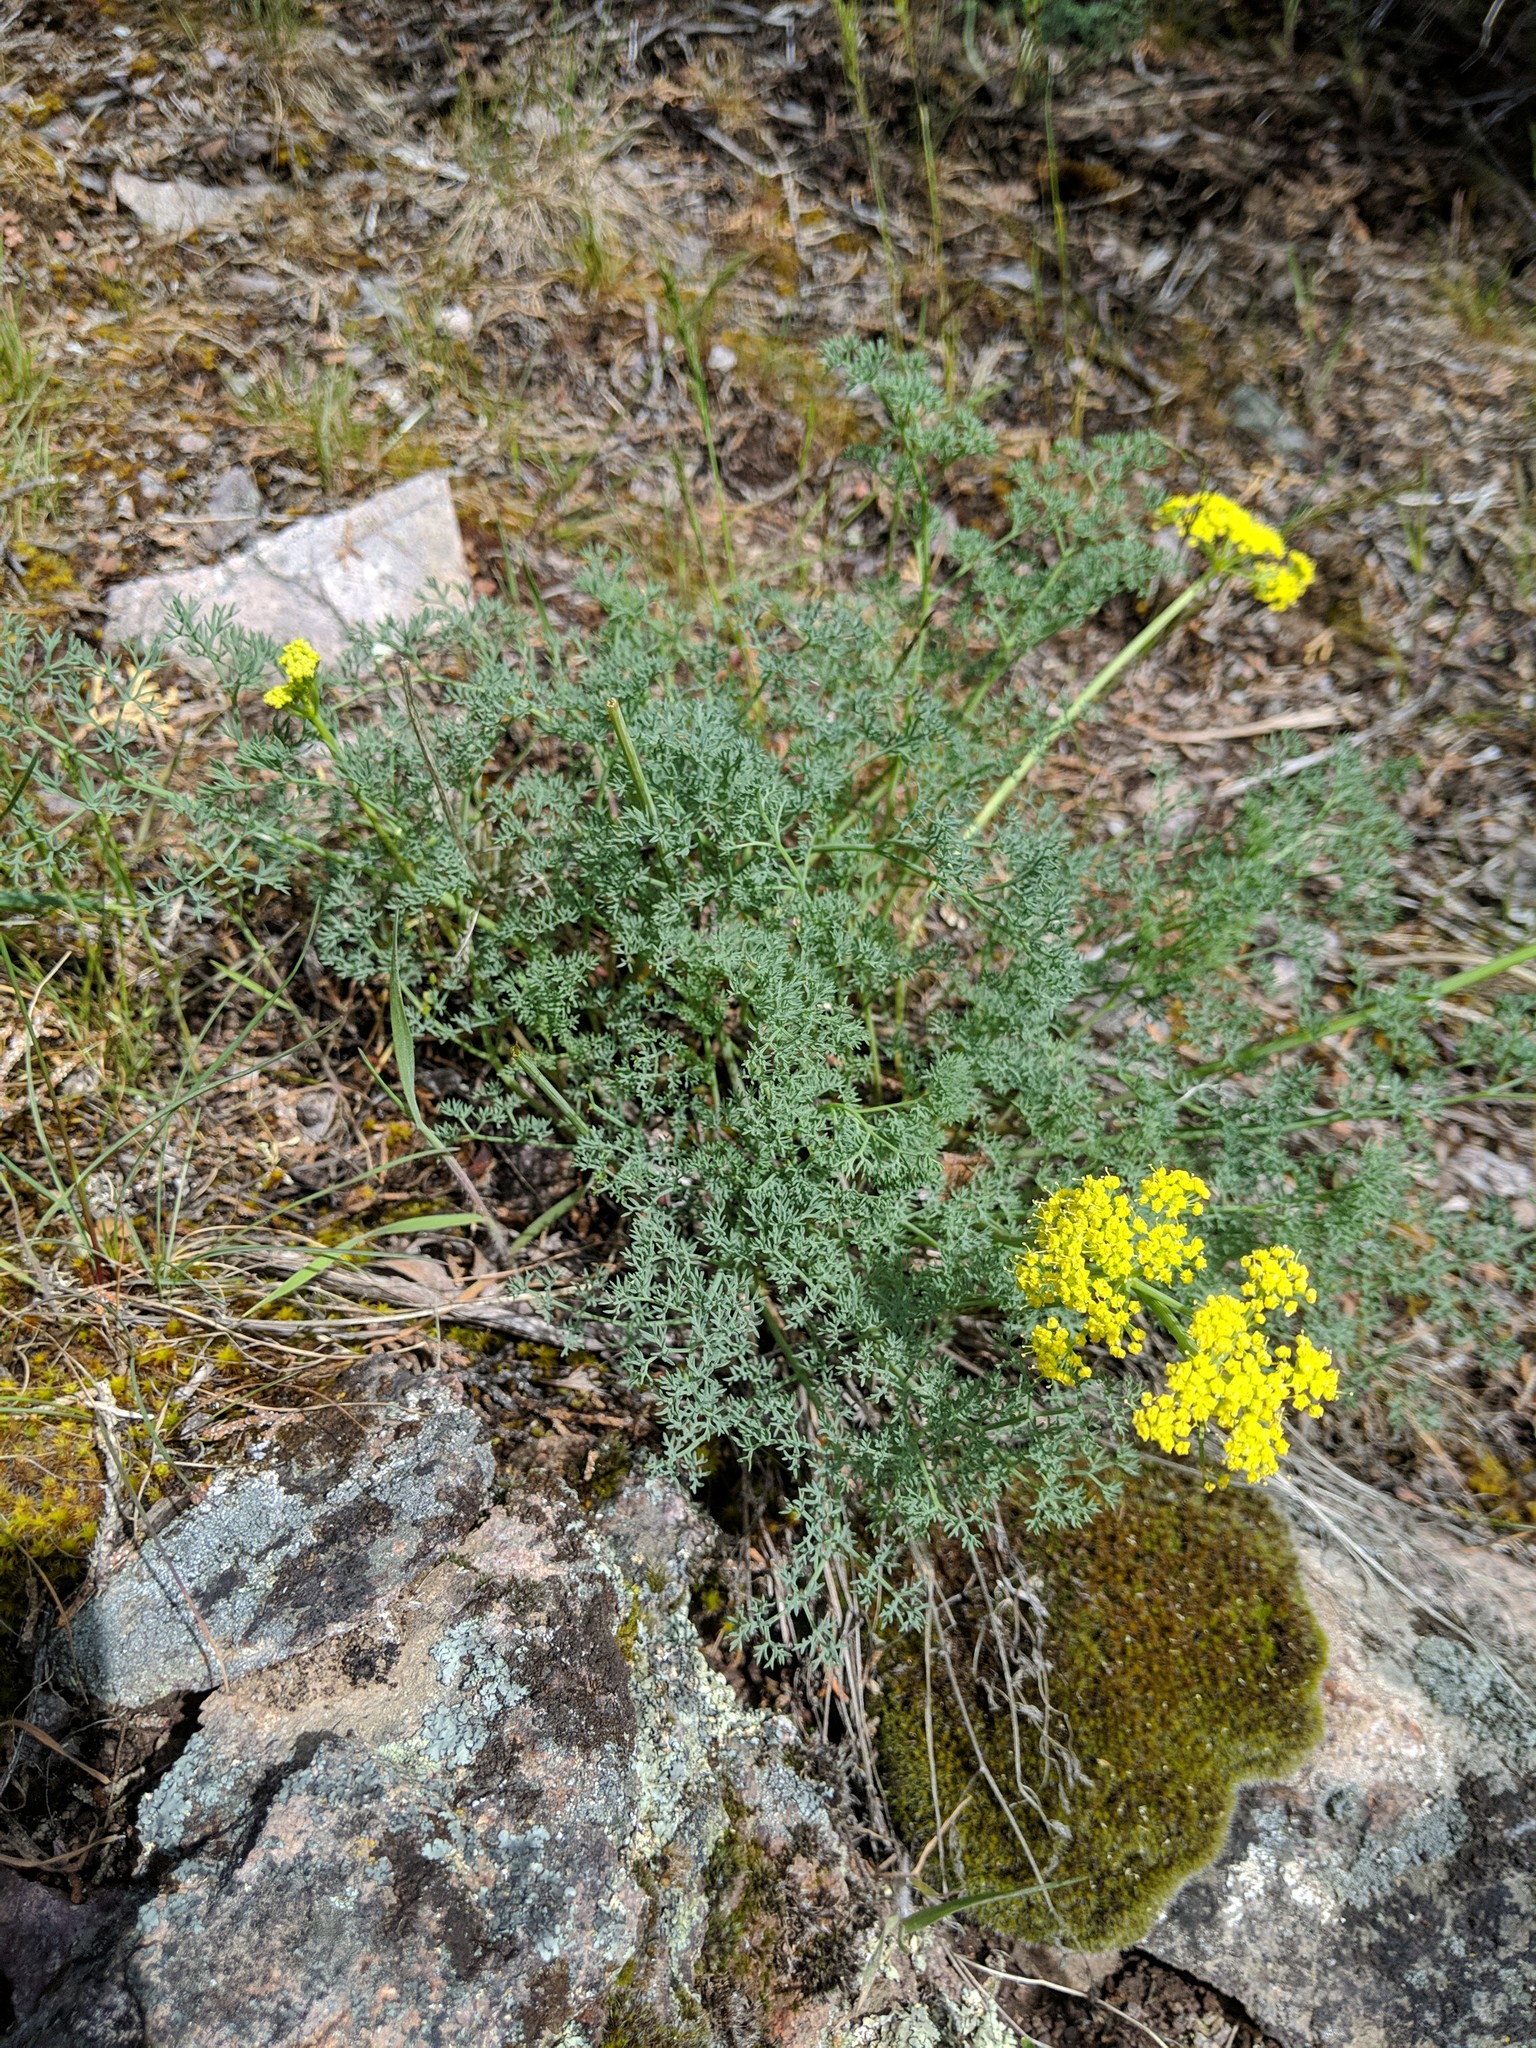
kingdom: Plantae
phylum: Tracheophyta
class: Magnoliopsida
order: Apiales
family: Apiaceae
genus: Lomatium
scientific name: Lomatium papilioniferum
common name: Butterfly lomatium
